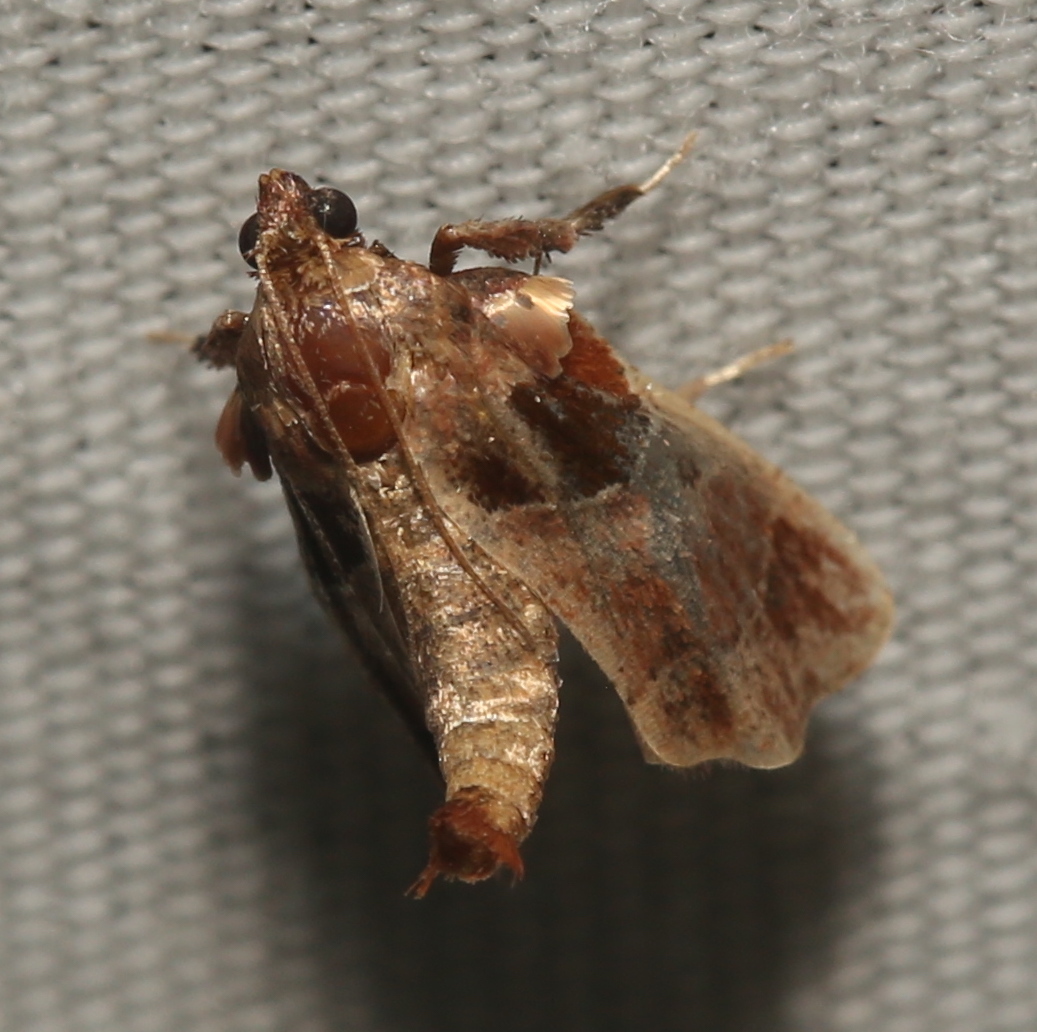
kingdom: Animalia
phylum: Arthropoda
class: Insecta
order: Lepidoptera
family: Pyralidae
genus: Tosale
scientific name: Tosale oviplagalis
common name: Dimorphic tosale moth
